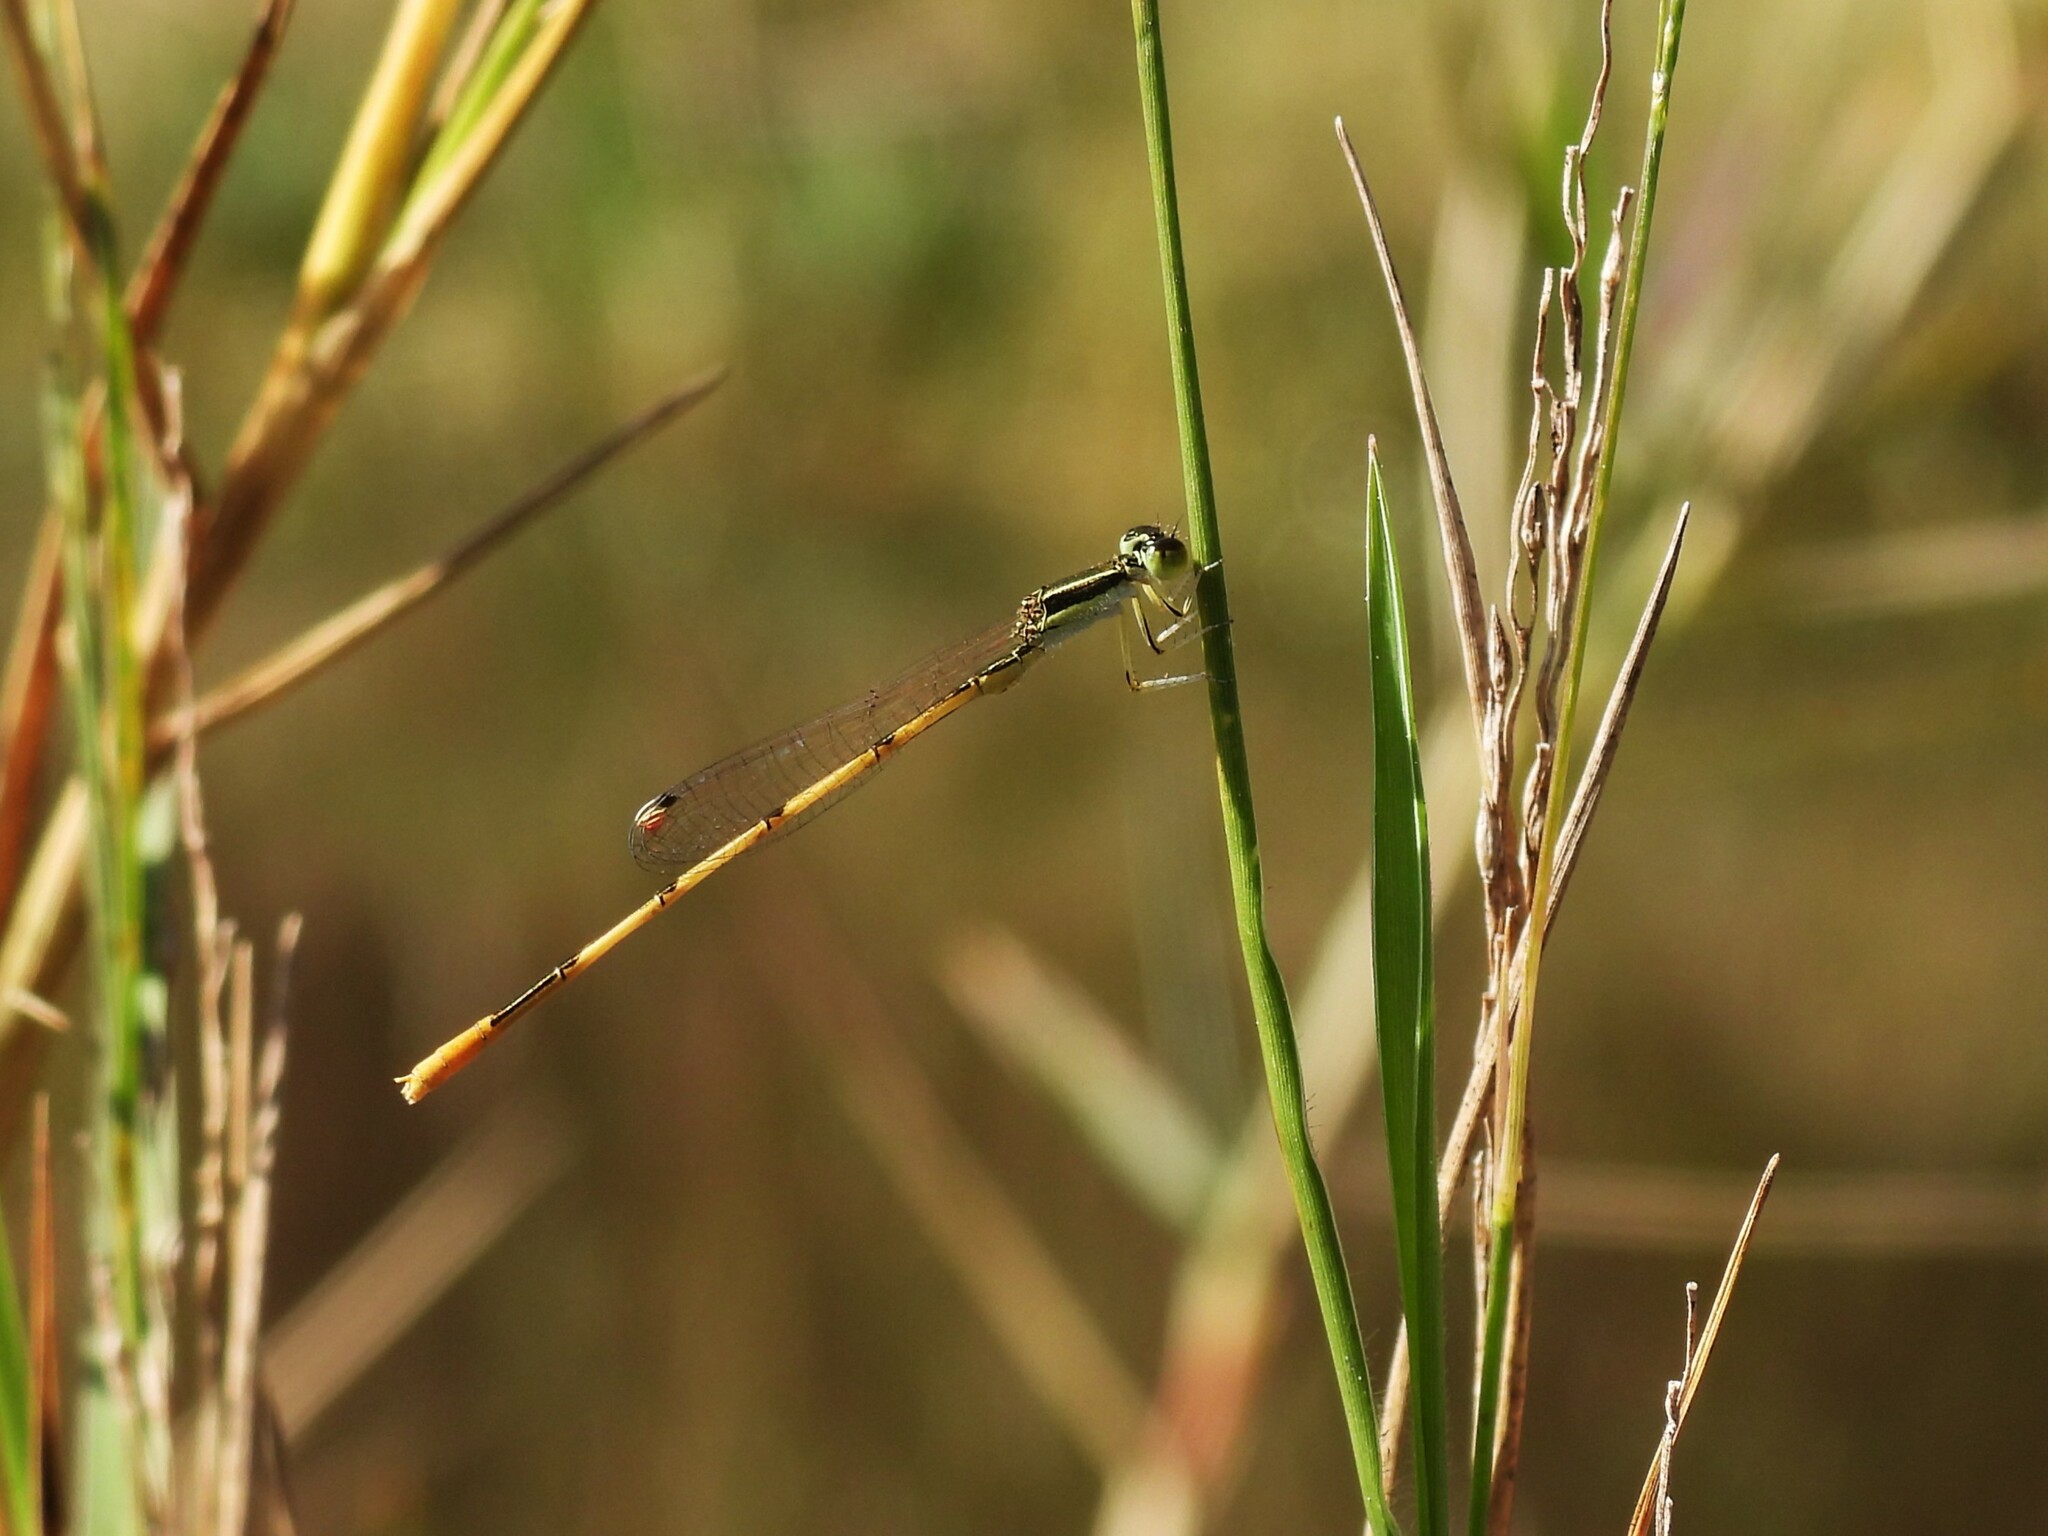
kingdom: Animalia
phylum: Arthropoda
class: Insecta
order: Odonata
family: Coenagrionidae
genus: Ischnura
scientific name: Ischnura hastata
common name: Citrine forktail
